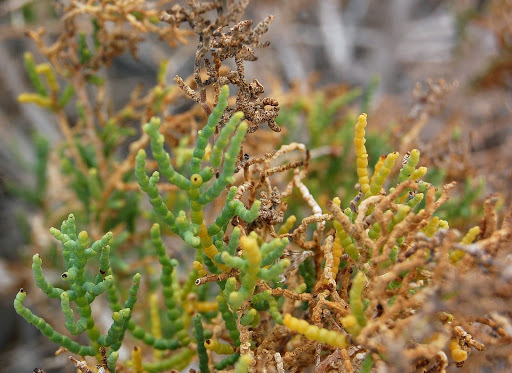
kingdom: Plantae
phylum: Tracheophyta
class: Magnoliopsida
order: Caryophyllales
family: Amaranthaceae
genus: Allenrolfea
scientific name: Allenrolfea occidentalis
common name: Iodine-bush
